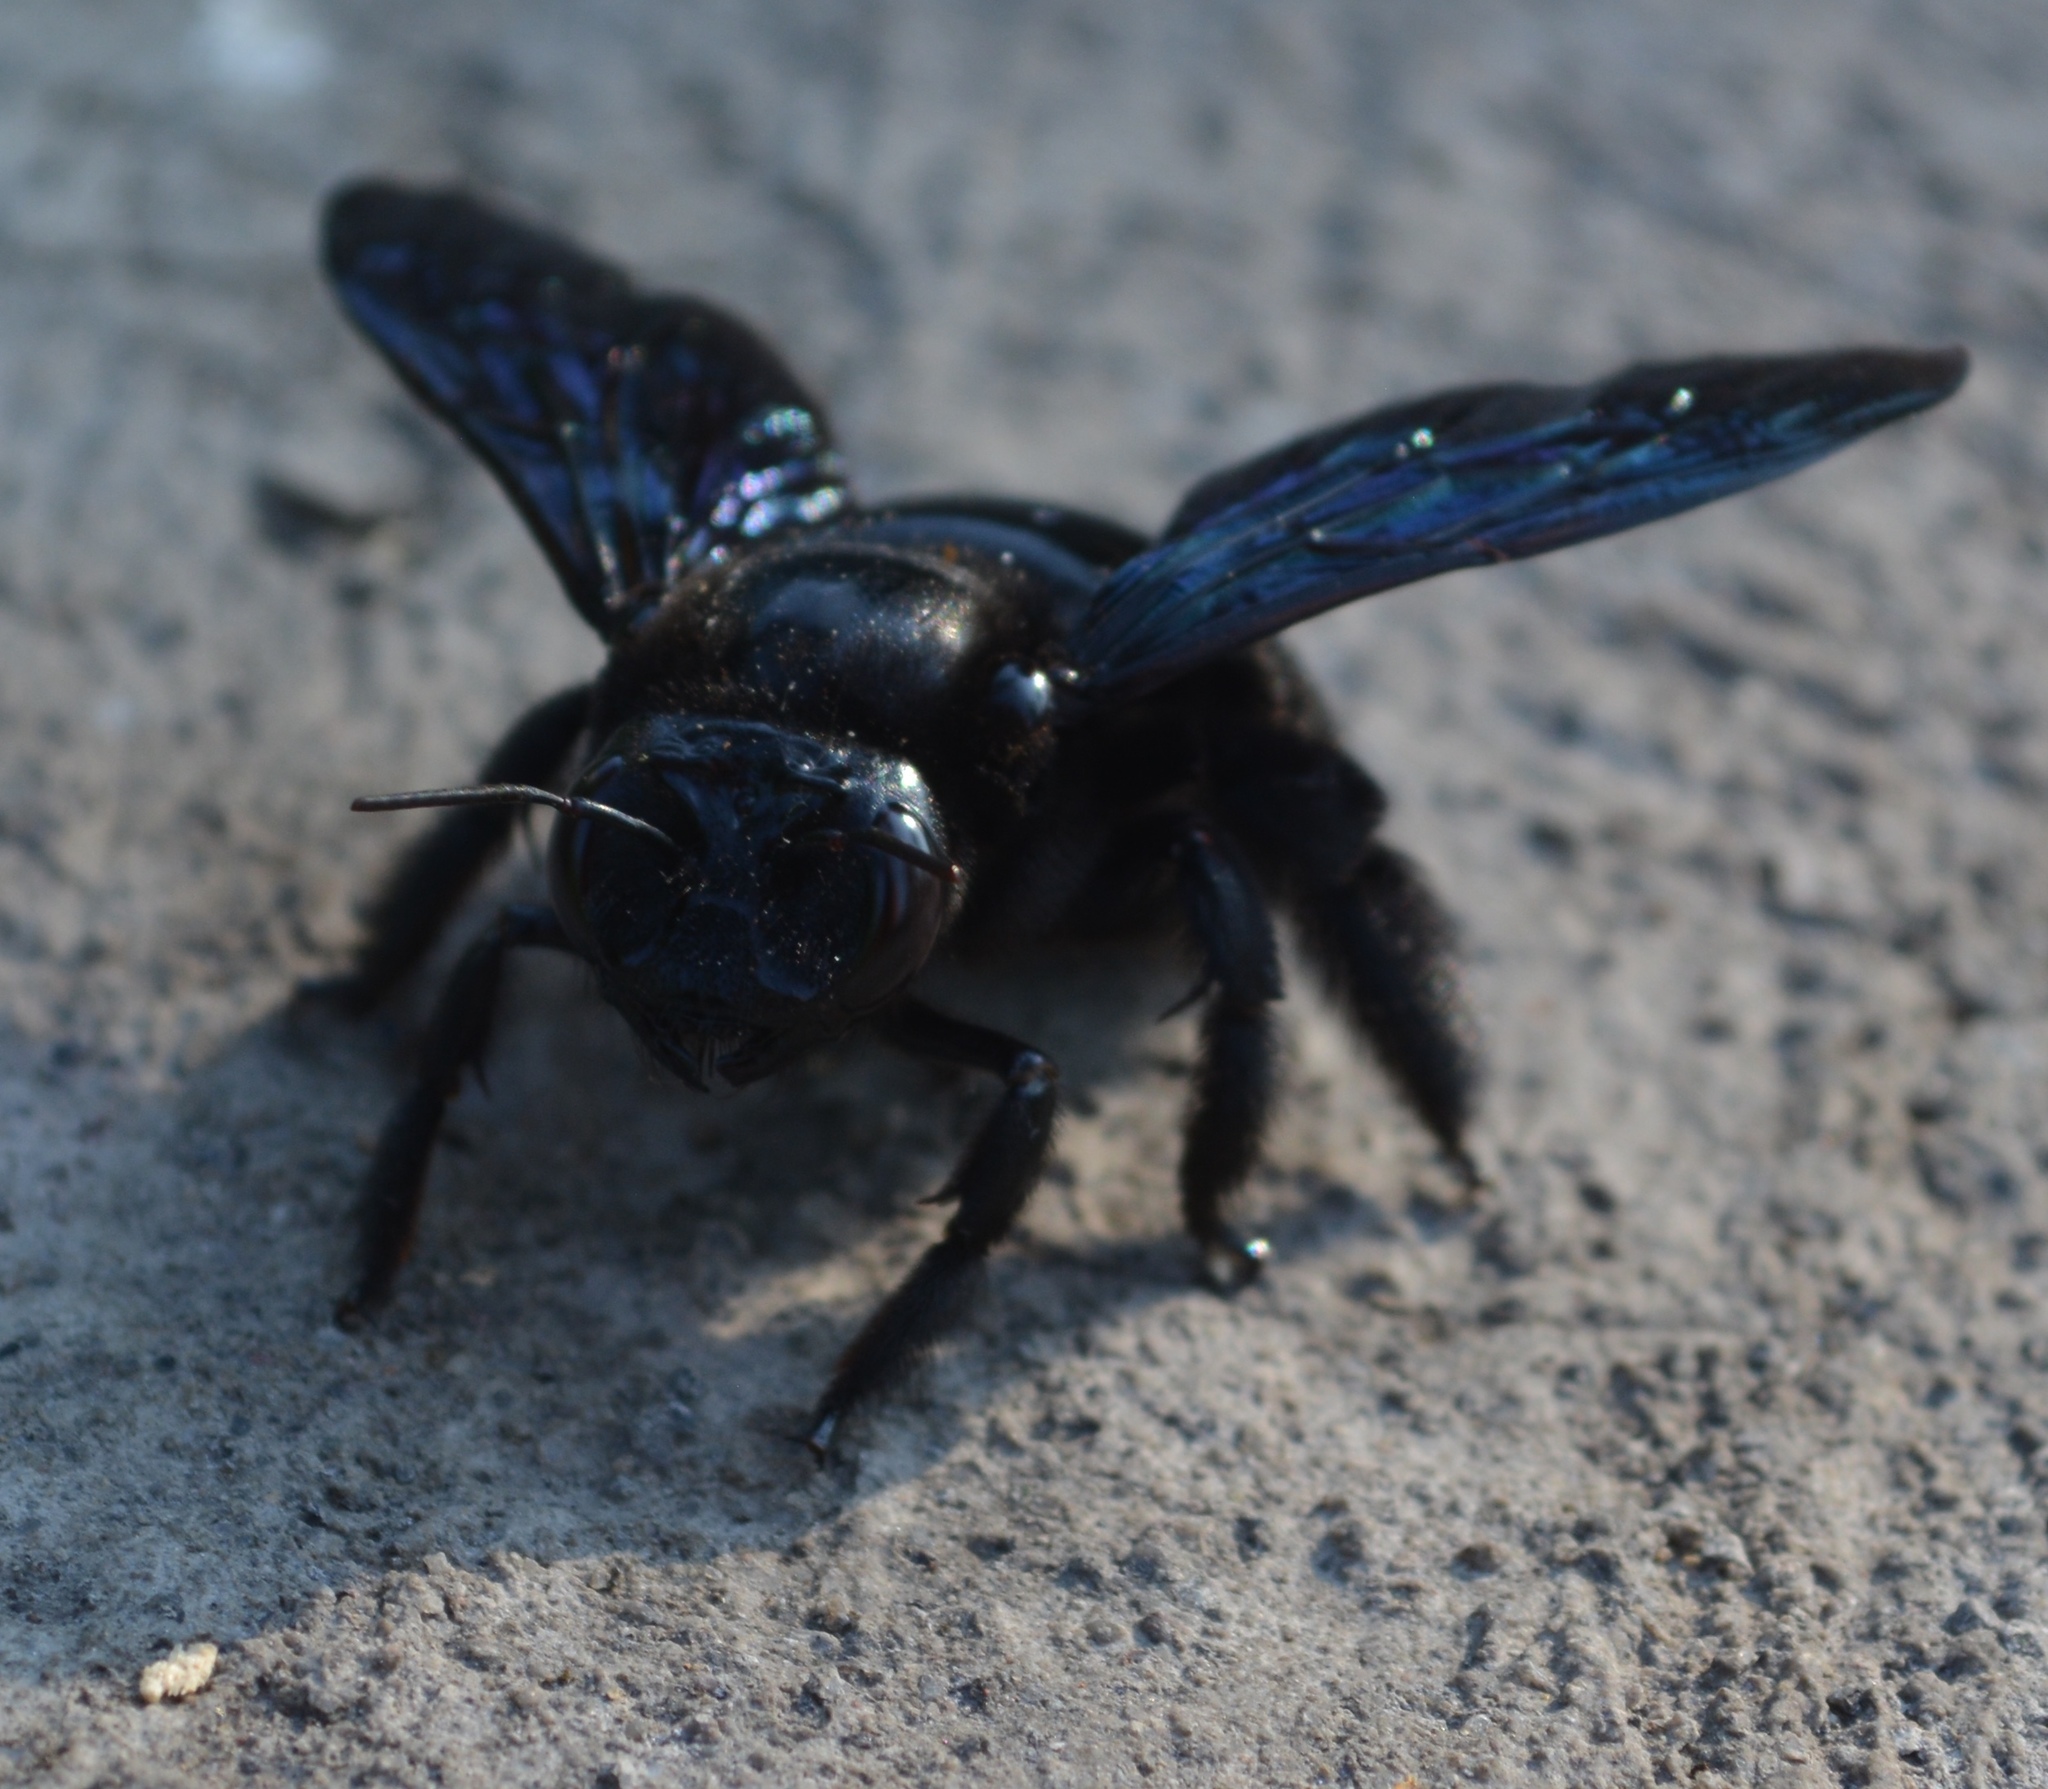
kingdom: Animalia
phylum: Arthropoda
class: Insecta
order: Hymenoptera
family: Apidae
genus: Xylocopa
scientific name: Xylocopa fimbriata
